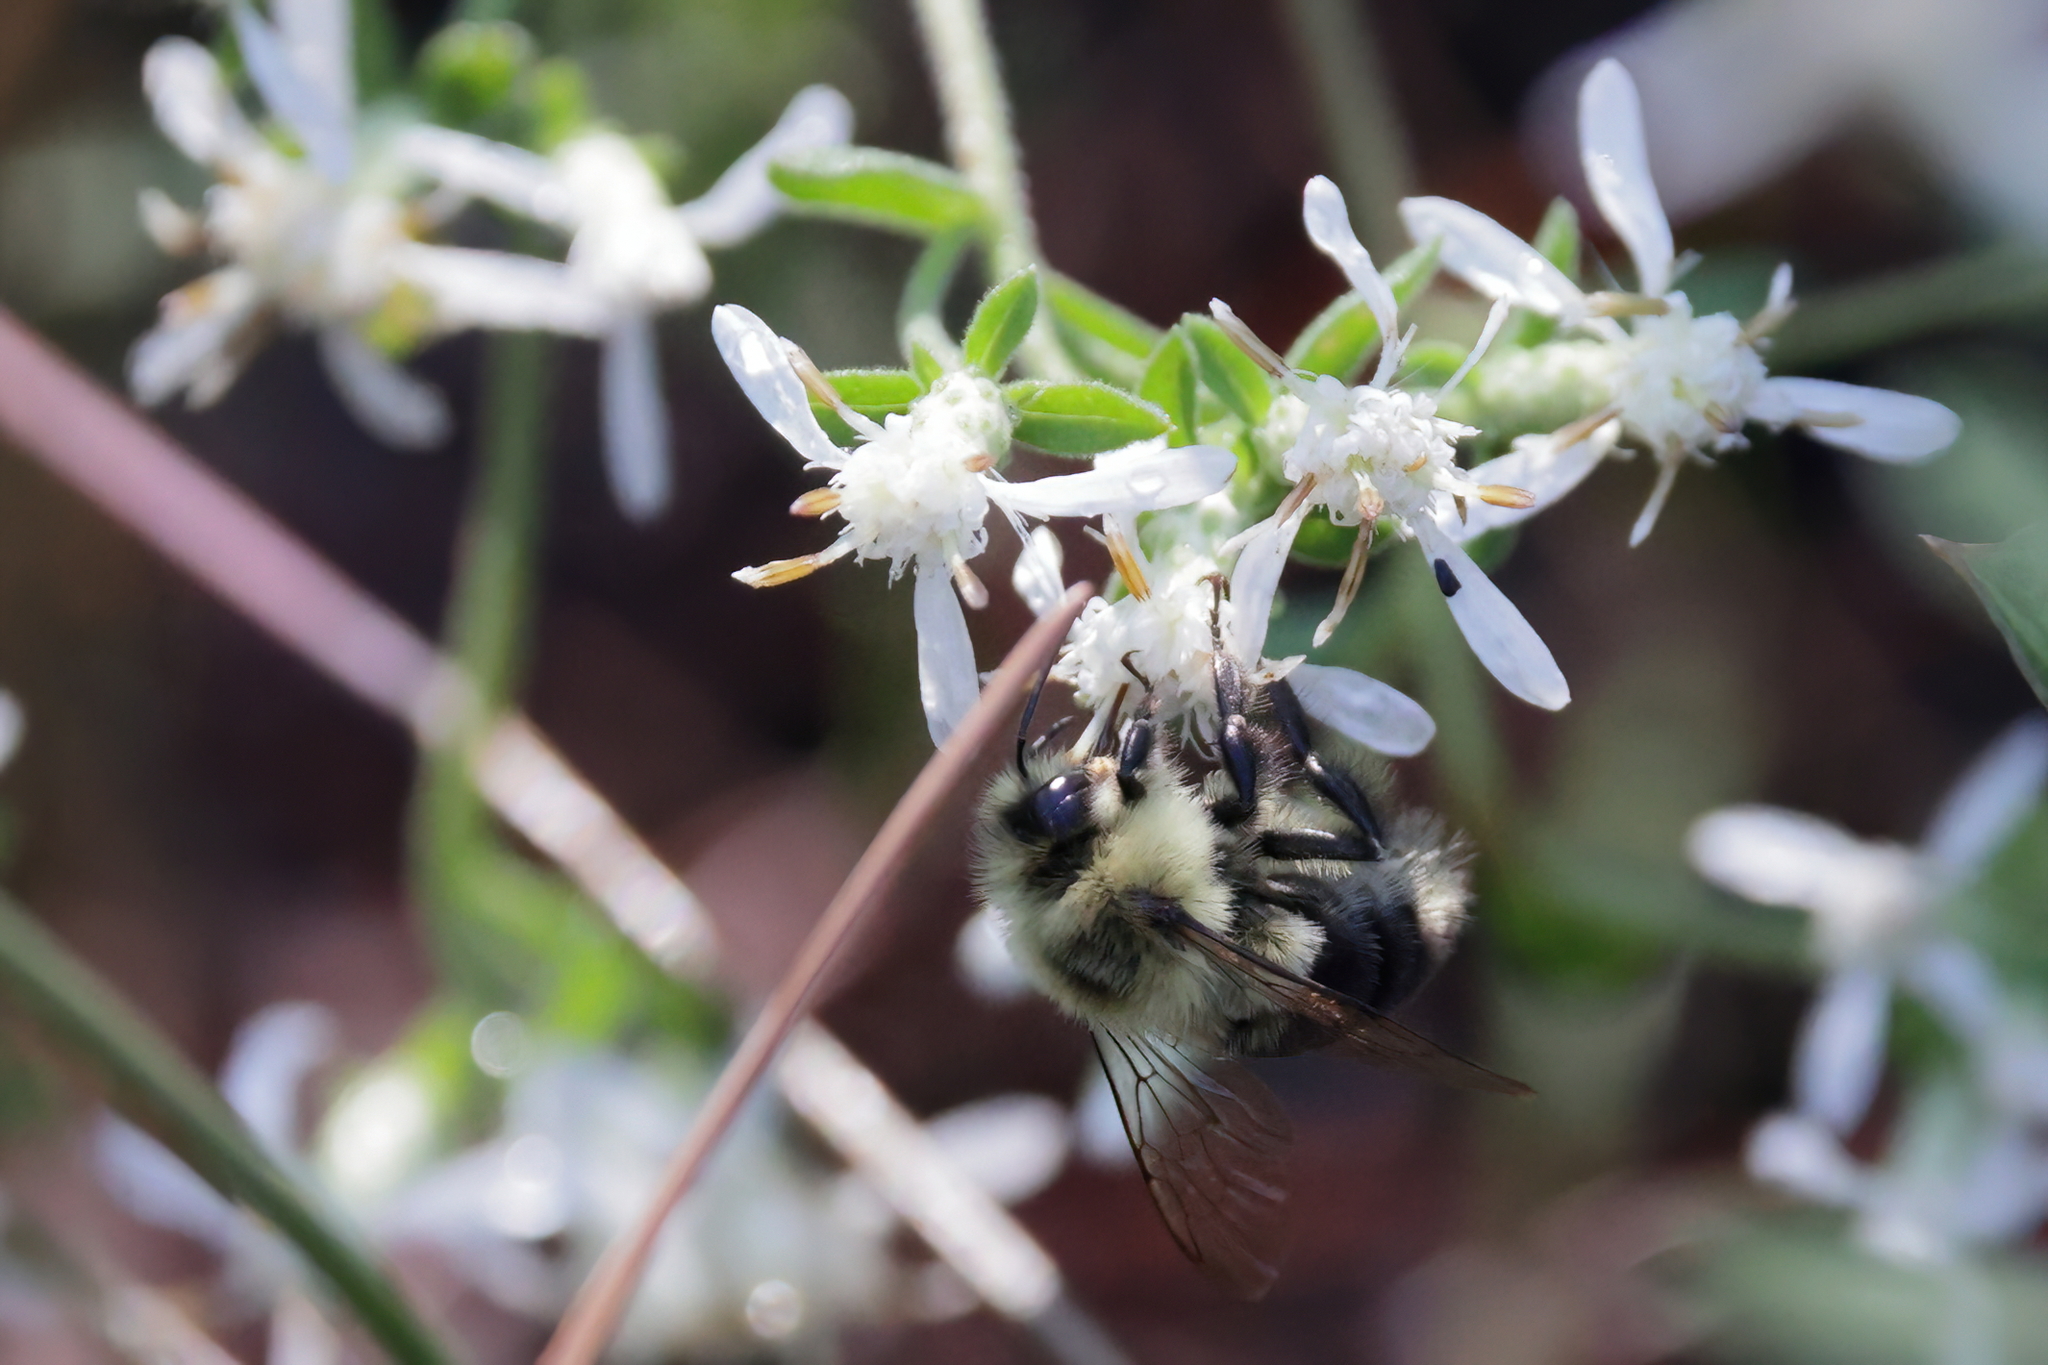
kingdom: Animalia
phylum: Arthropoda
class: Insecta
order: Hymenoptera
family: Apidae
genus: Bombus
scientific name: Bombus impatiens
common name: Common eastern bumble bee
